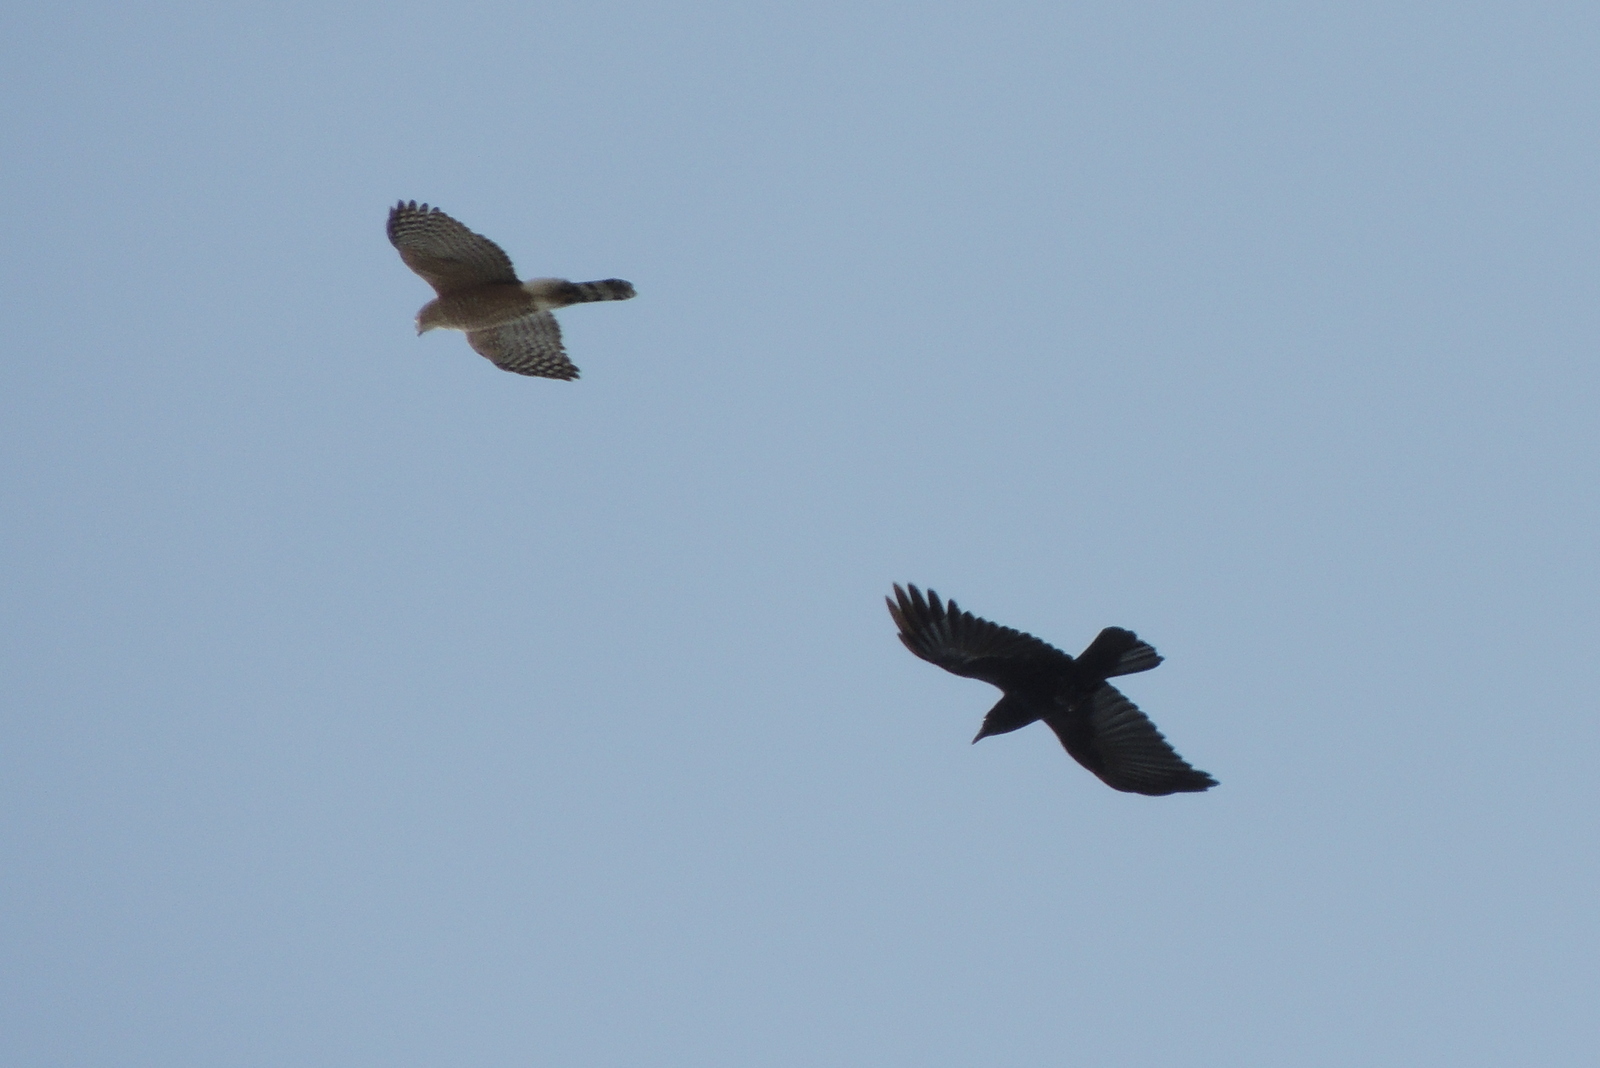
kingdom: Animalia
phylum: Chordata
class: Aves
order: Accipitriformes
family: Accipitridae
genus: Accipiter
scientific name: Accipiter cooperii
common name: Cooper's hawk
